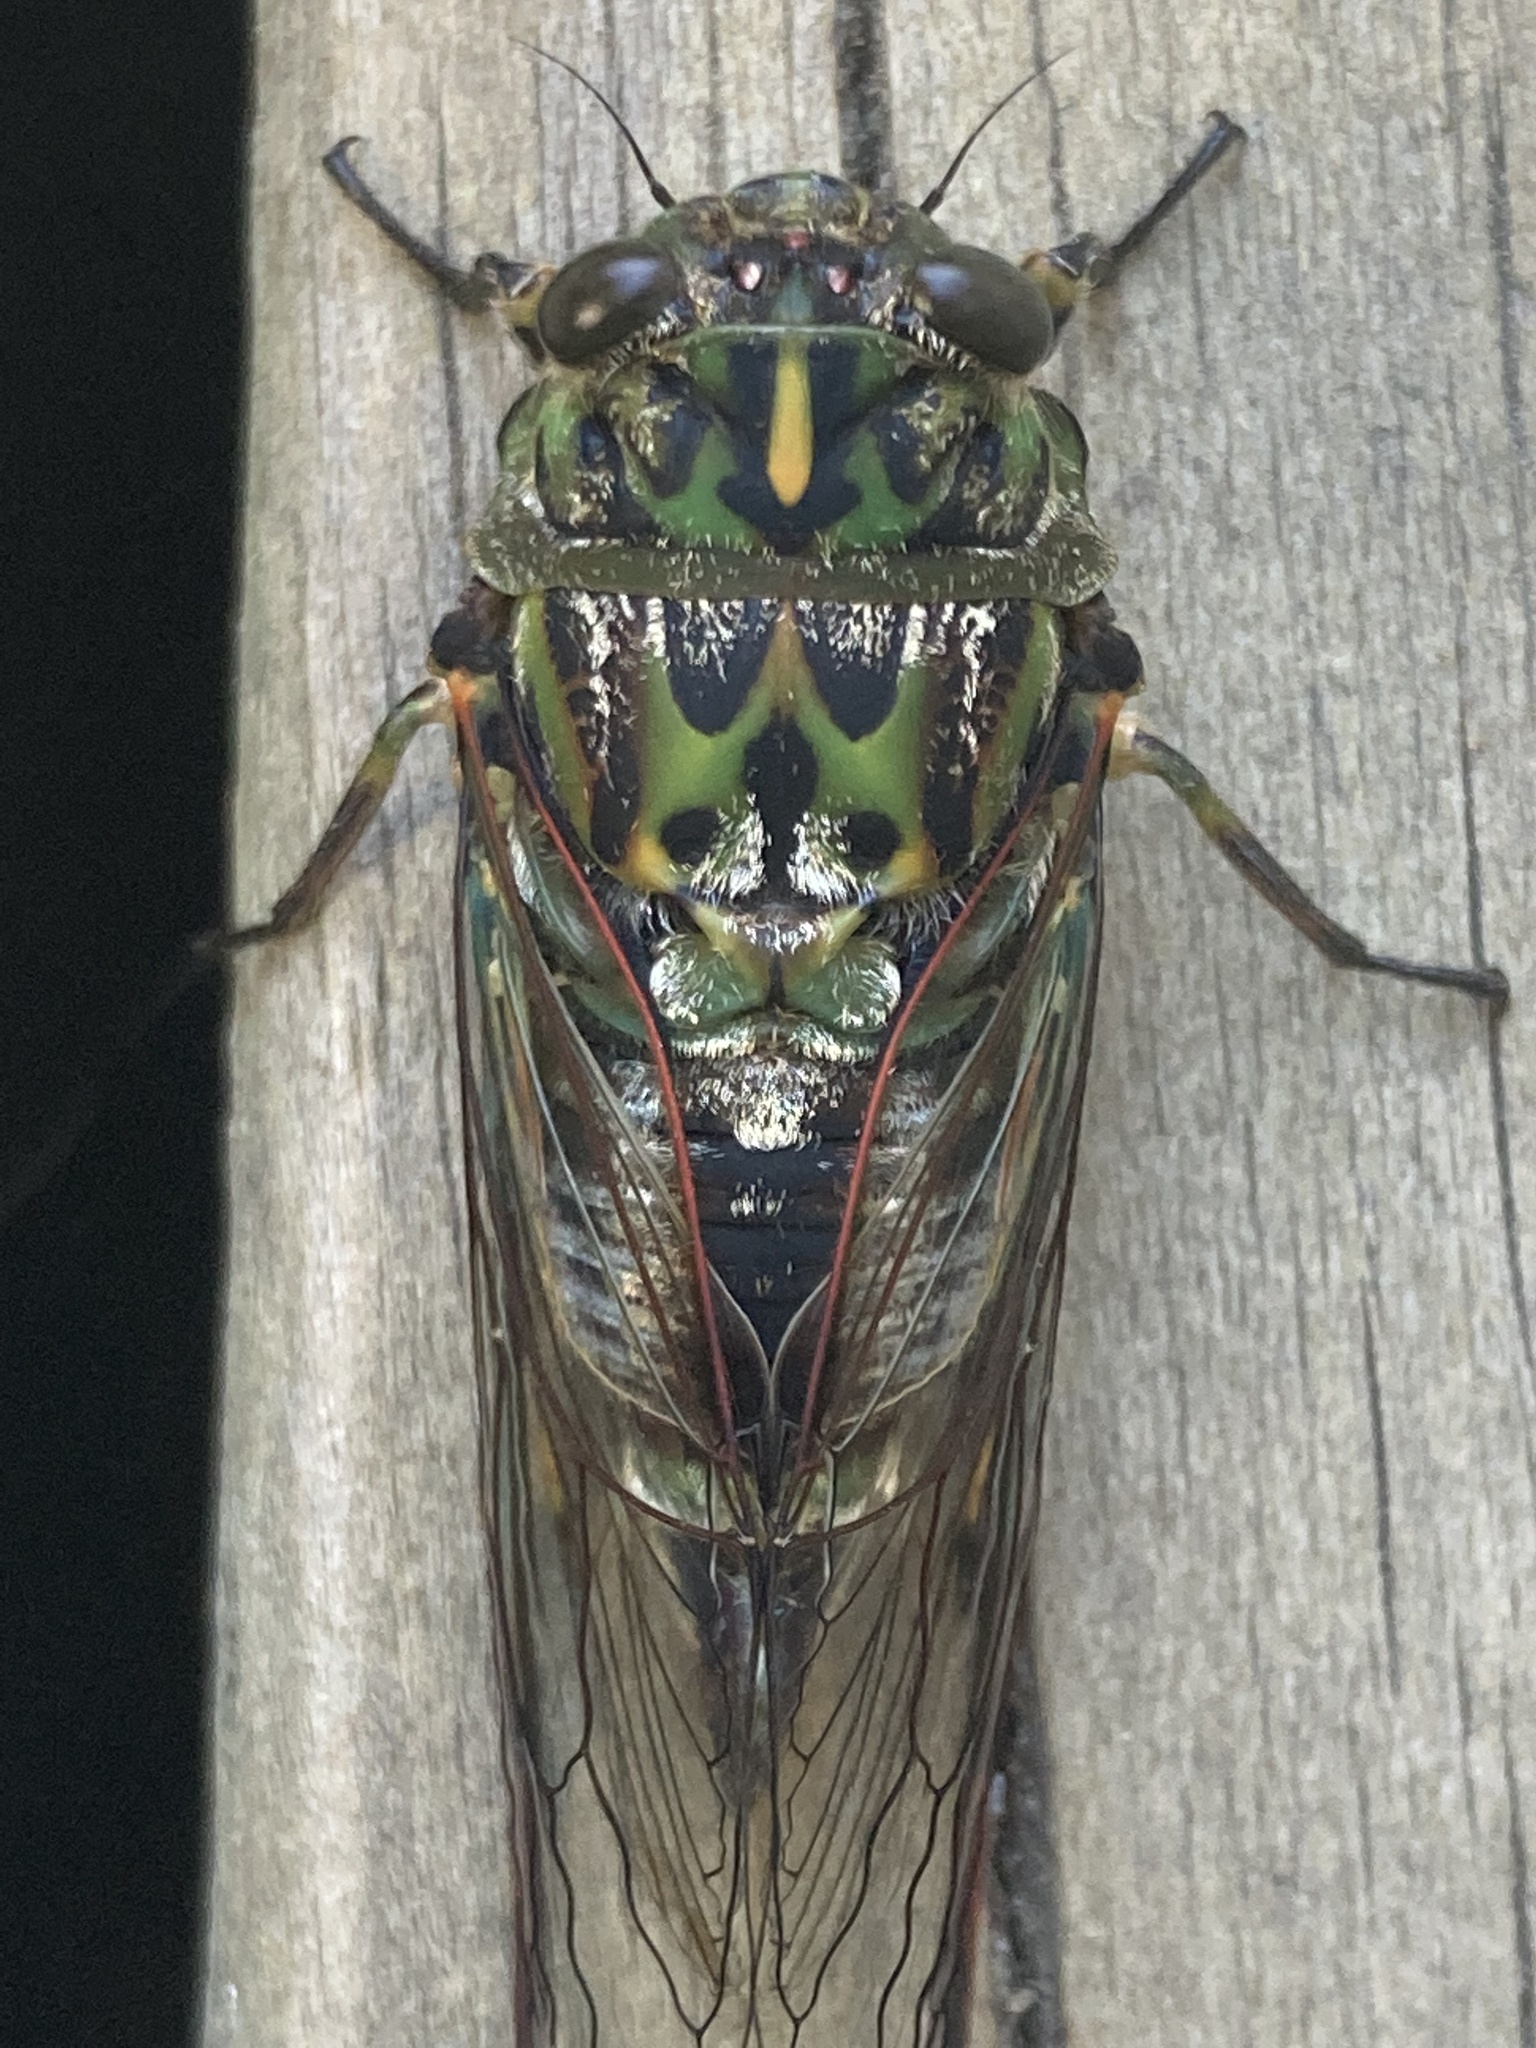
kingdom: Animalia
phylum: Arthropoda
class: Insecta
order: Hemiptera
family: Cicadidae
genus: Amphipsalta
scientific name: Amphipsalta zelandica
